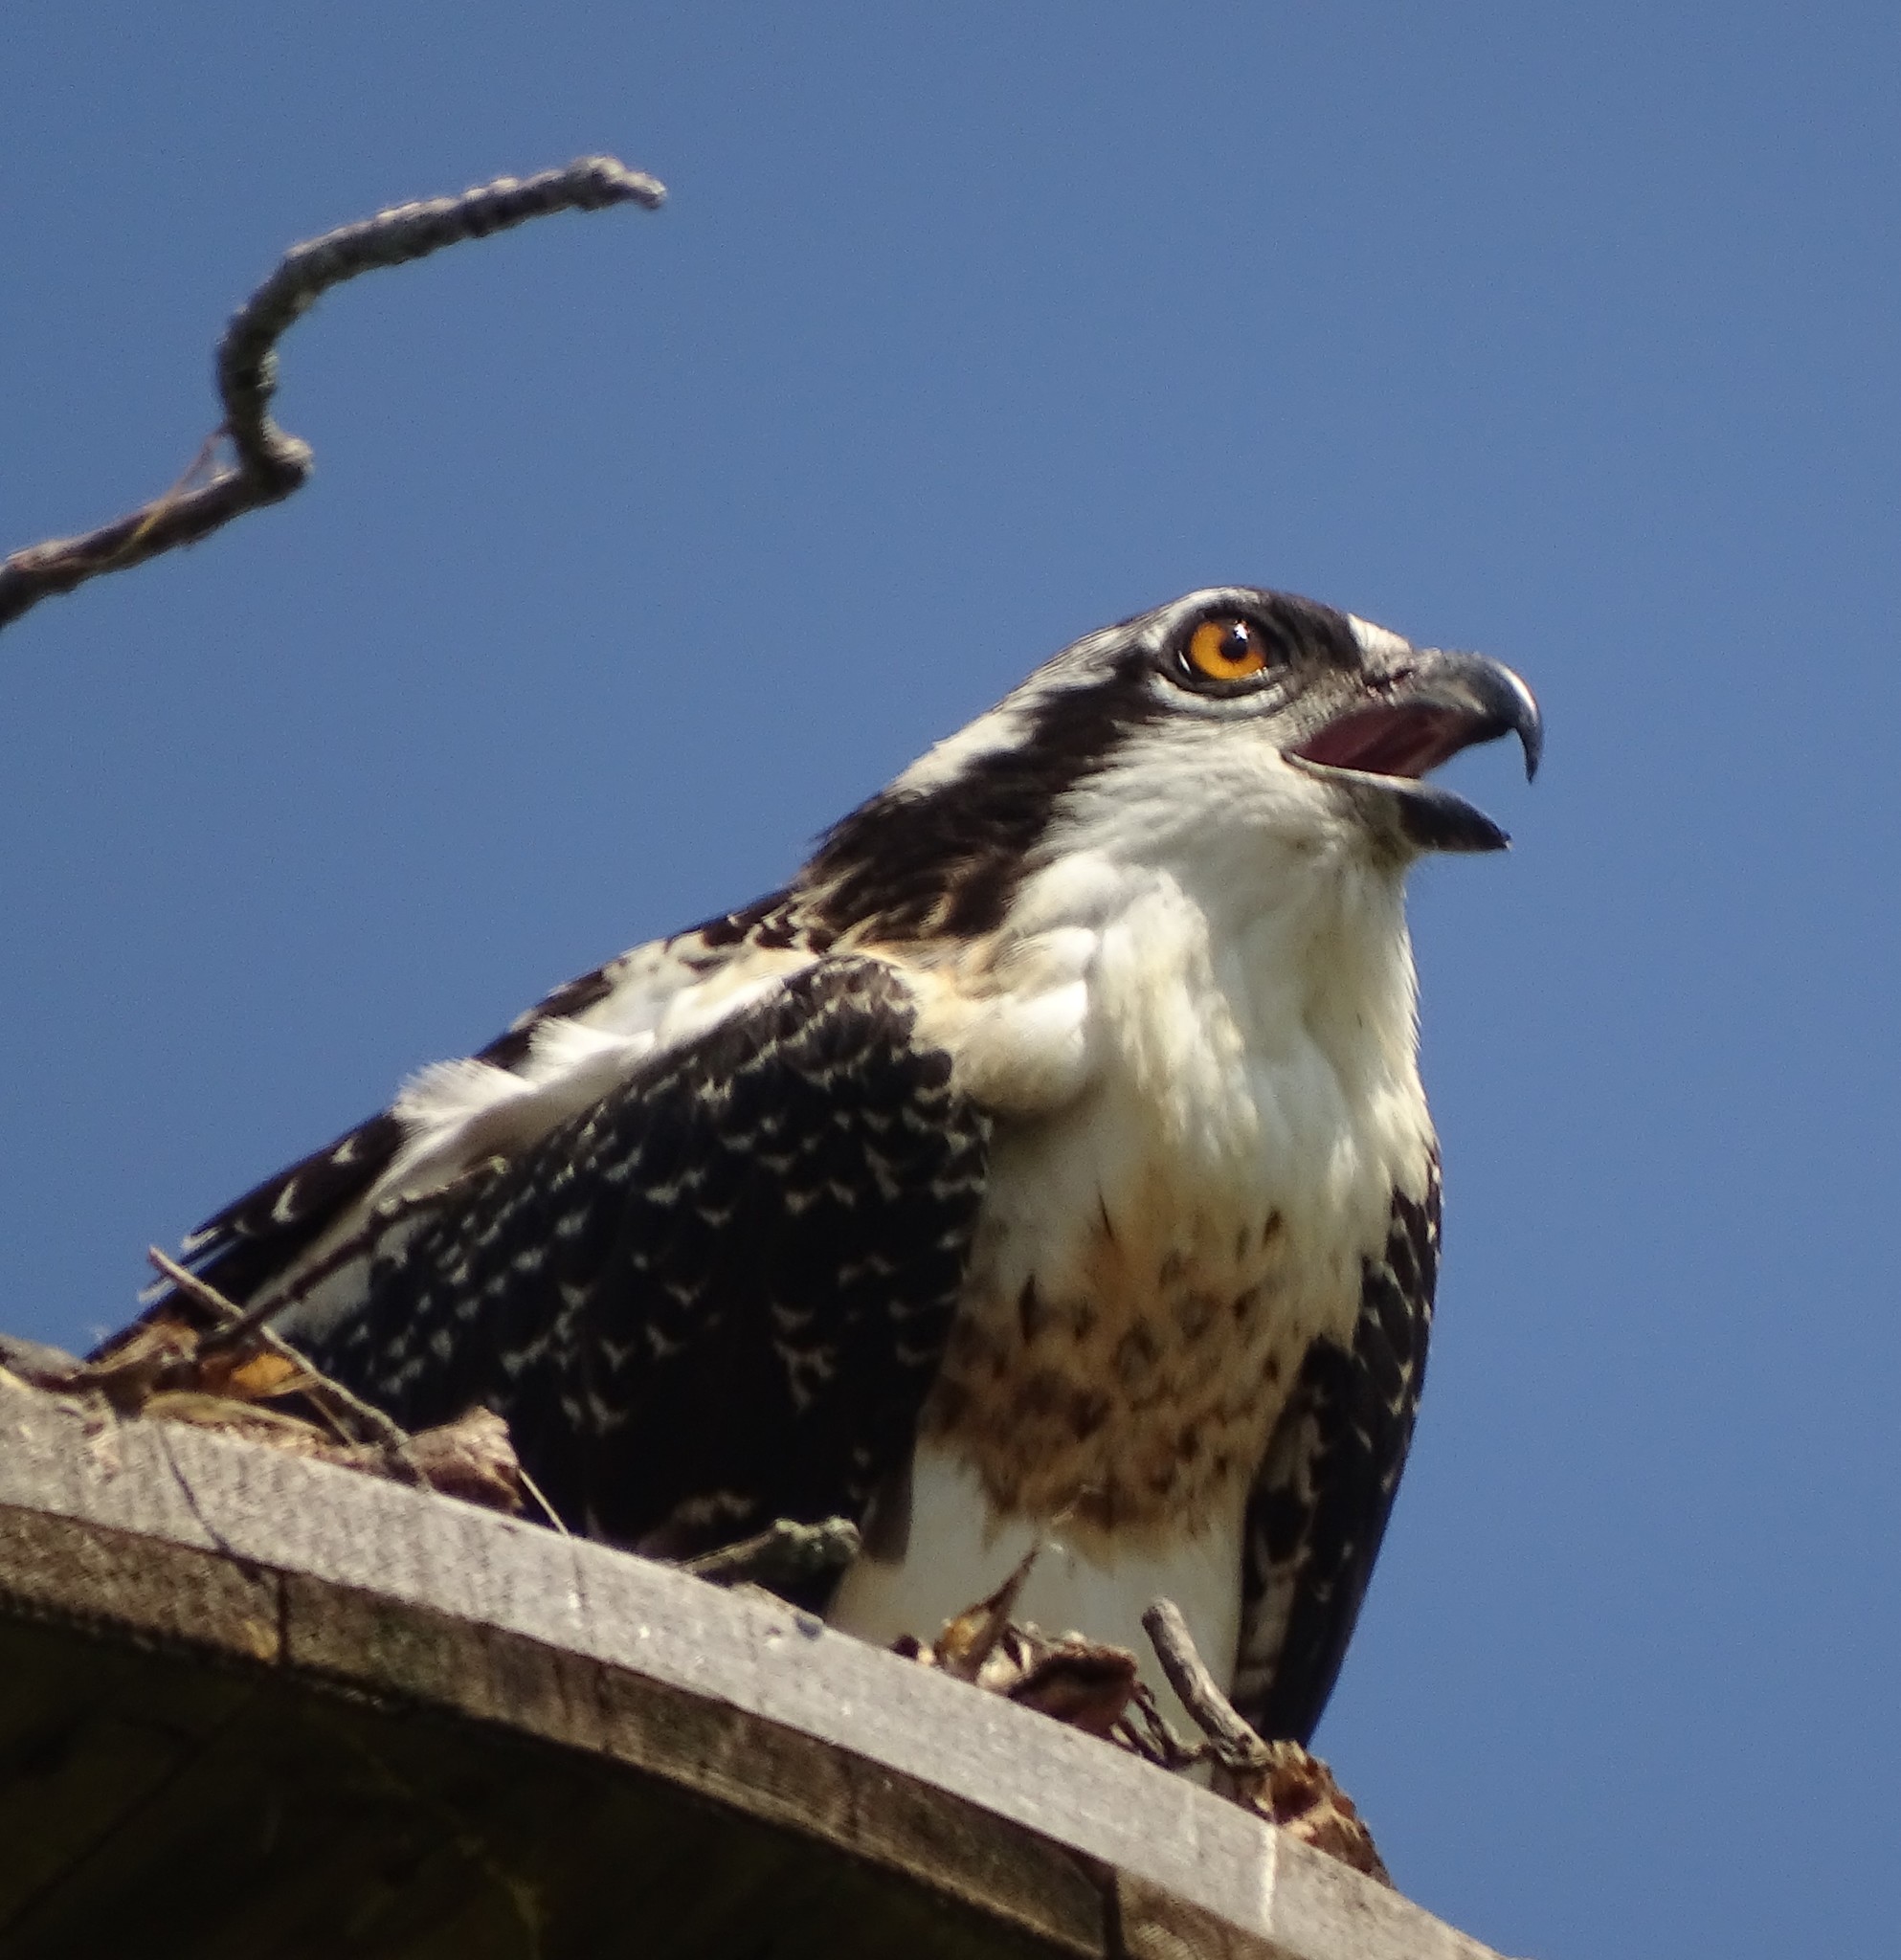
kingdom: Animalia
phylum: Chordata
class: Aves
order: Accipitriformes
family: Pandionidae
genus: Pandion
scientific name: Pandion haliaetus
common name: Osprey
